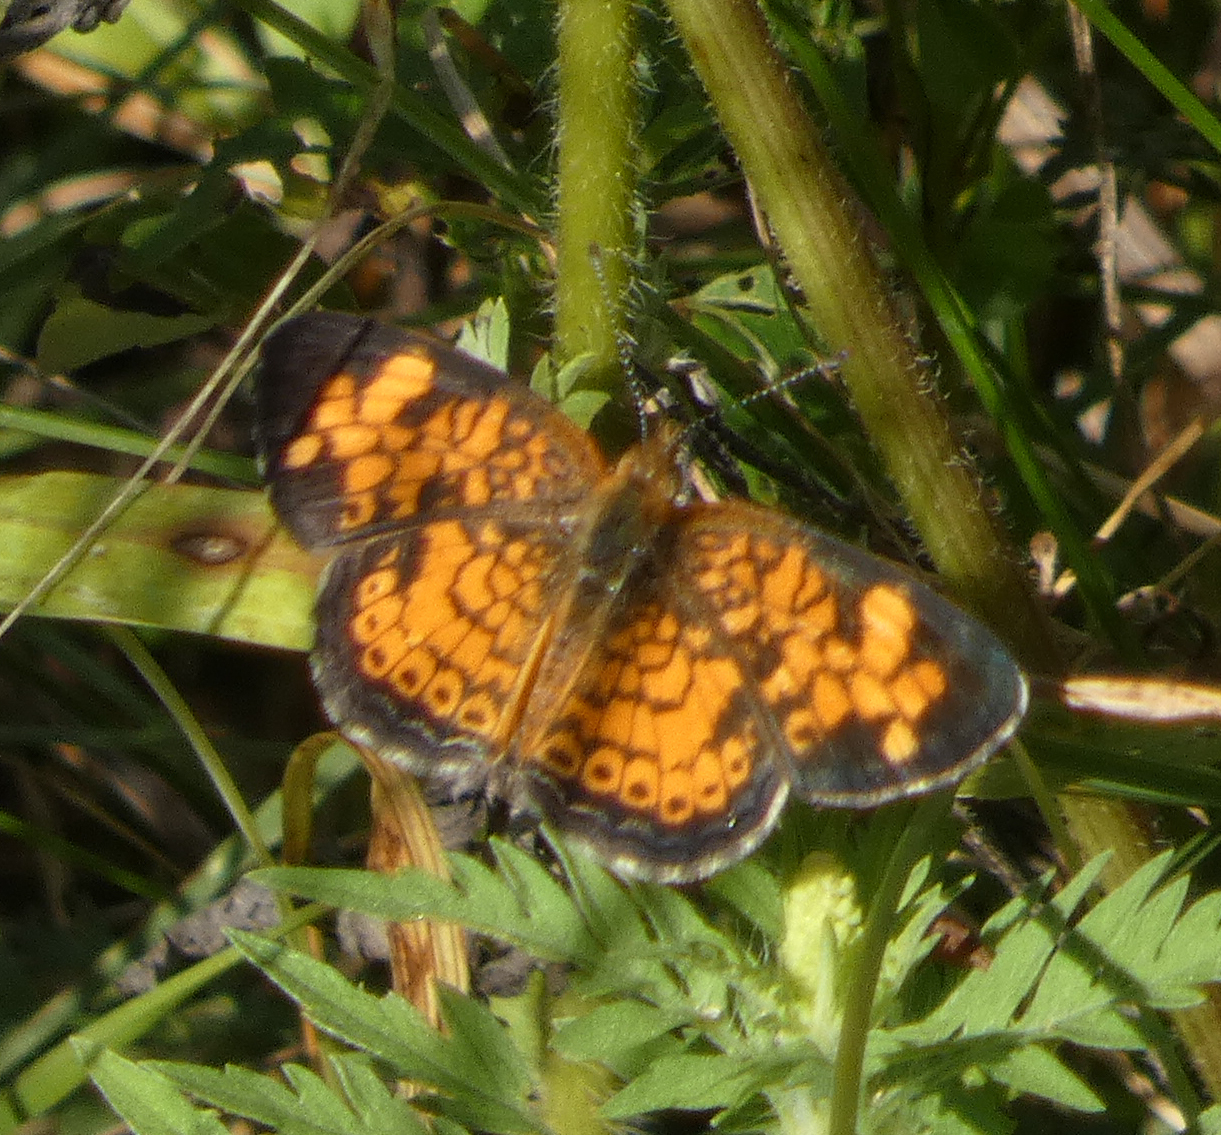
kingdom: Animalia
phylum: Arthropoda
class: Insecta
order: Lepidoptera
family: Nymphalidae
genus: Phyciodes
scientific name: Phyciodes tharos
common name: Pearl crescent
